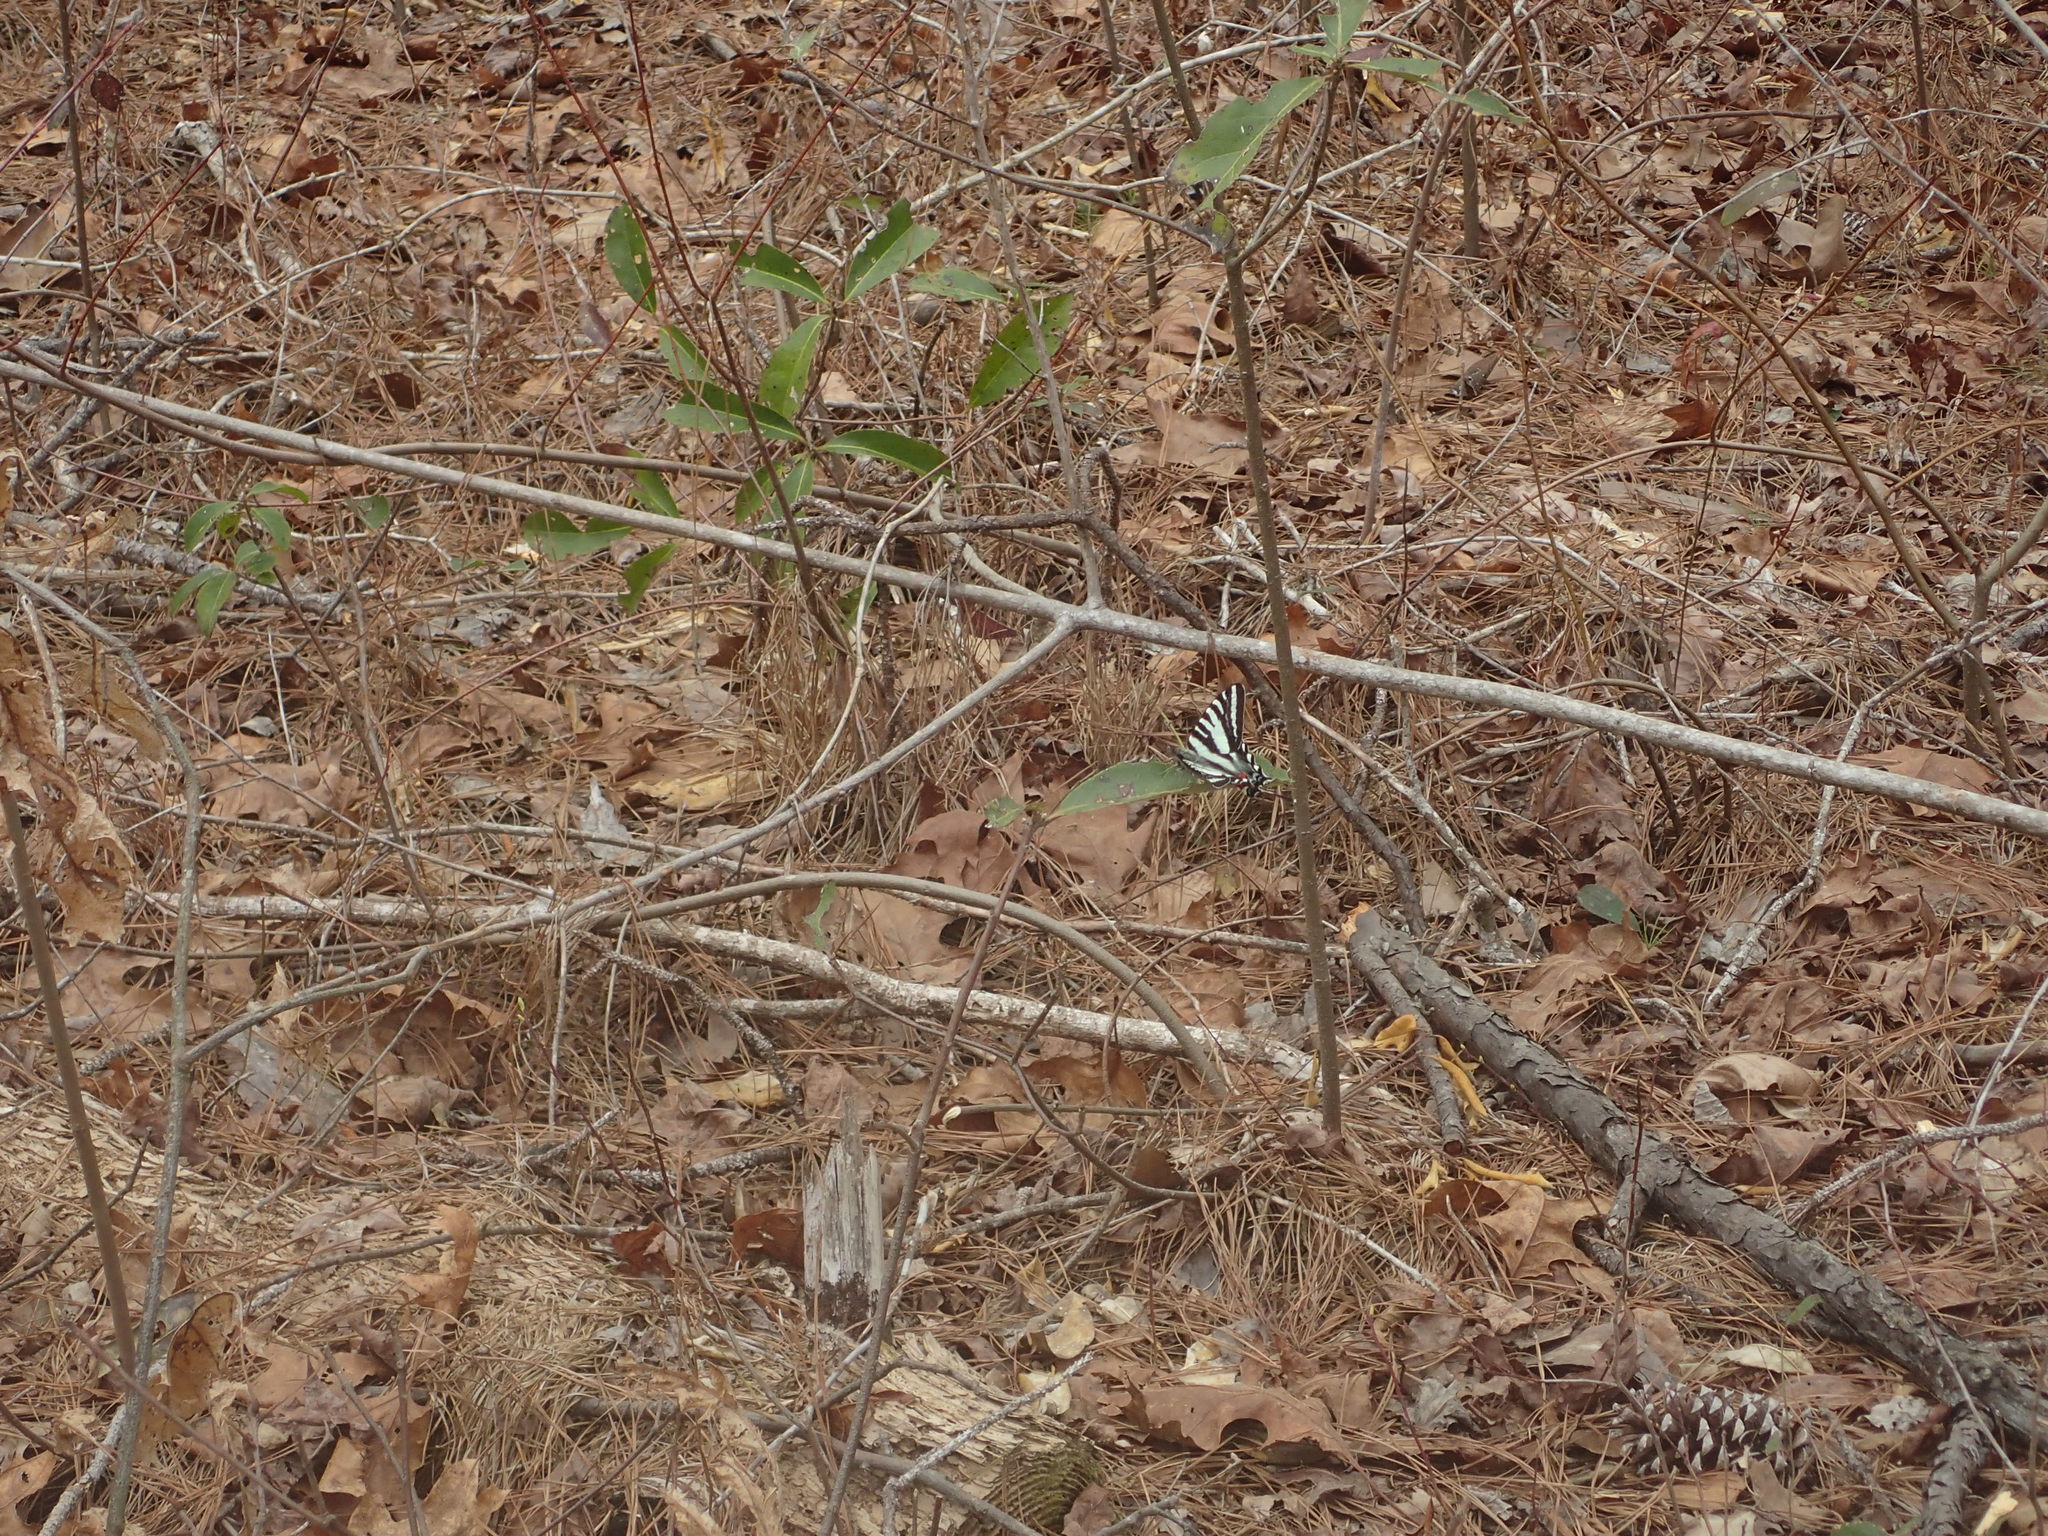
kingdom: Animalia
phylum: Arthropoda
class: Insecta
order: Lepidoptera
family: Papilionidae
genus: Protographium
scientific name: Protographium marcellus
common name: Zebra swallowtail
